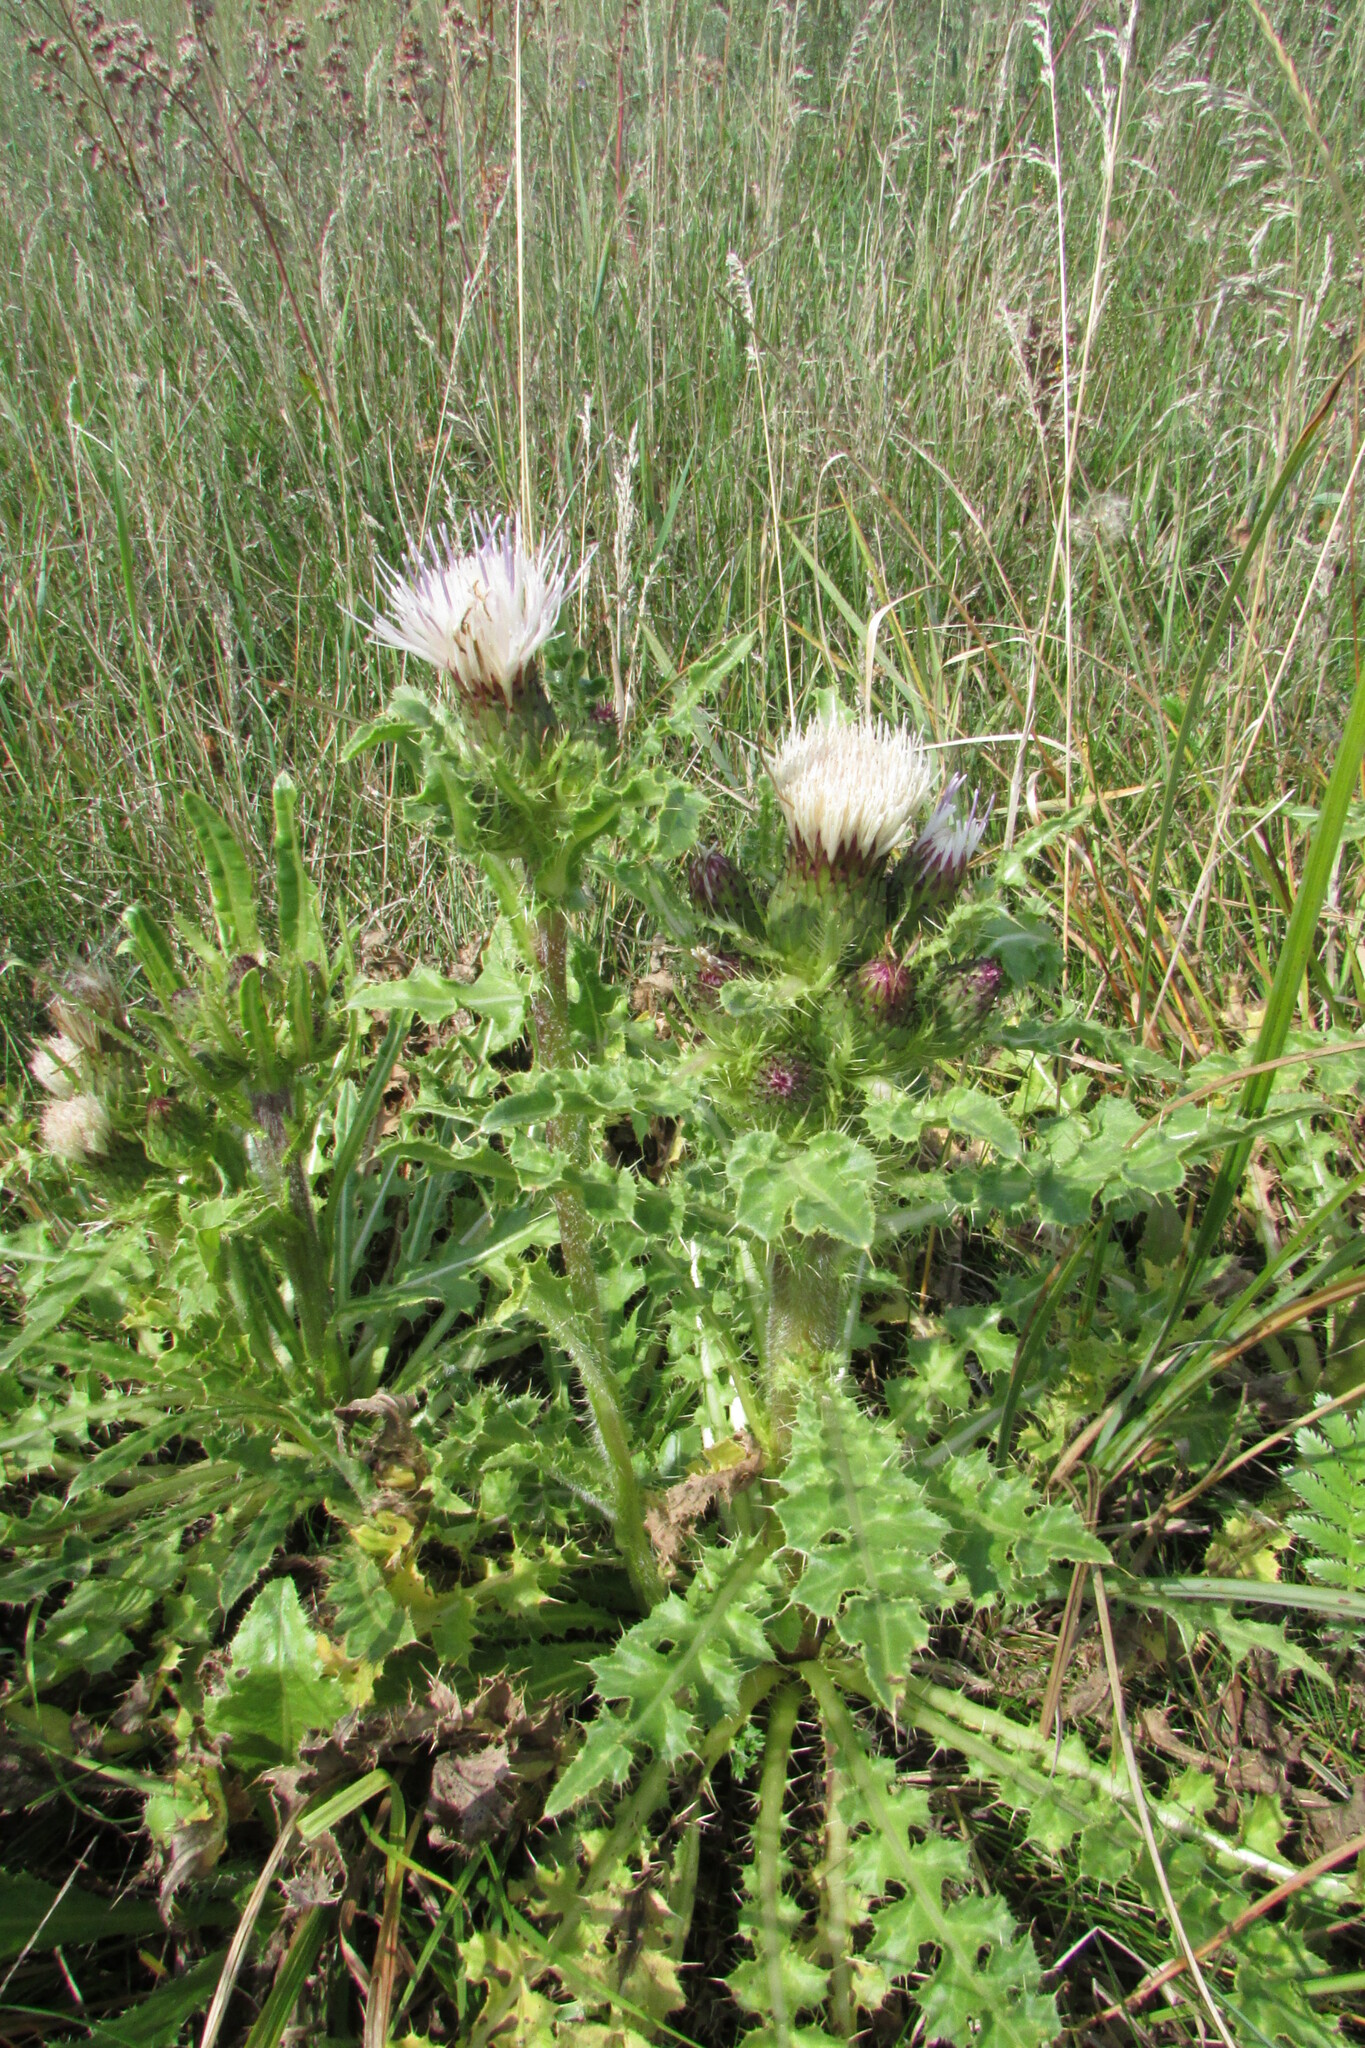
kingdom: Plantae
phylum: Tracheophyta
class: Magnoliopsida
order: Asterales
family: Asteraceae
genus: Cirsium
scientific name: Cirsium esculentum
